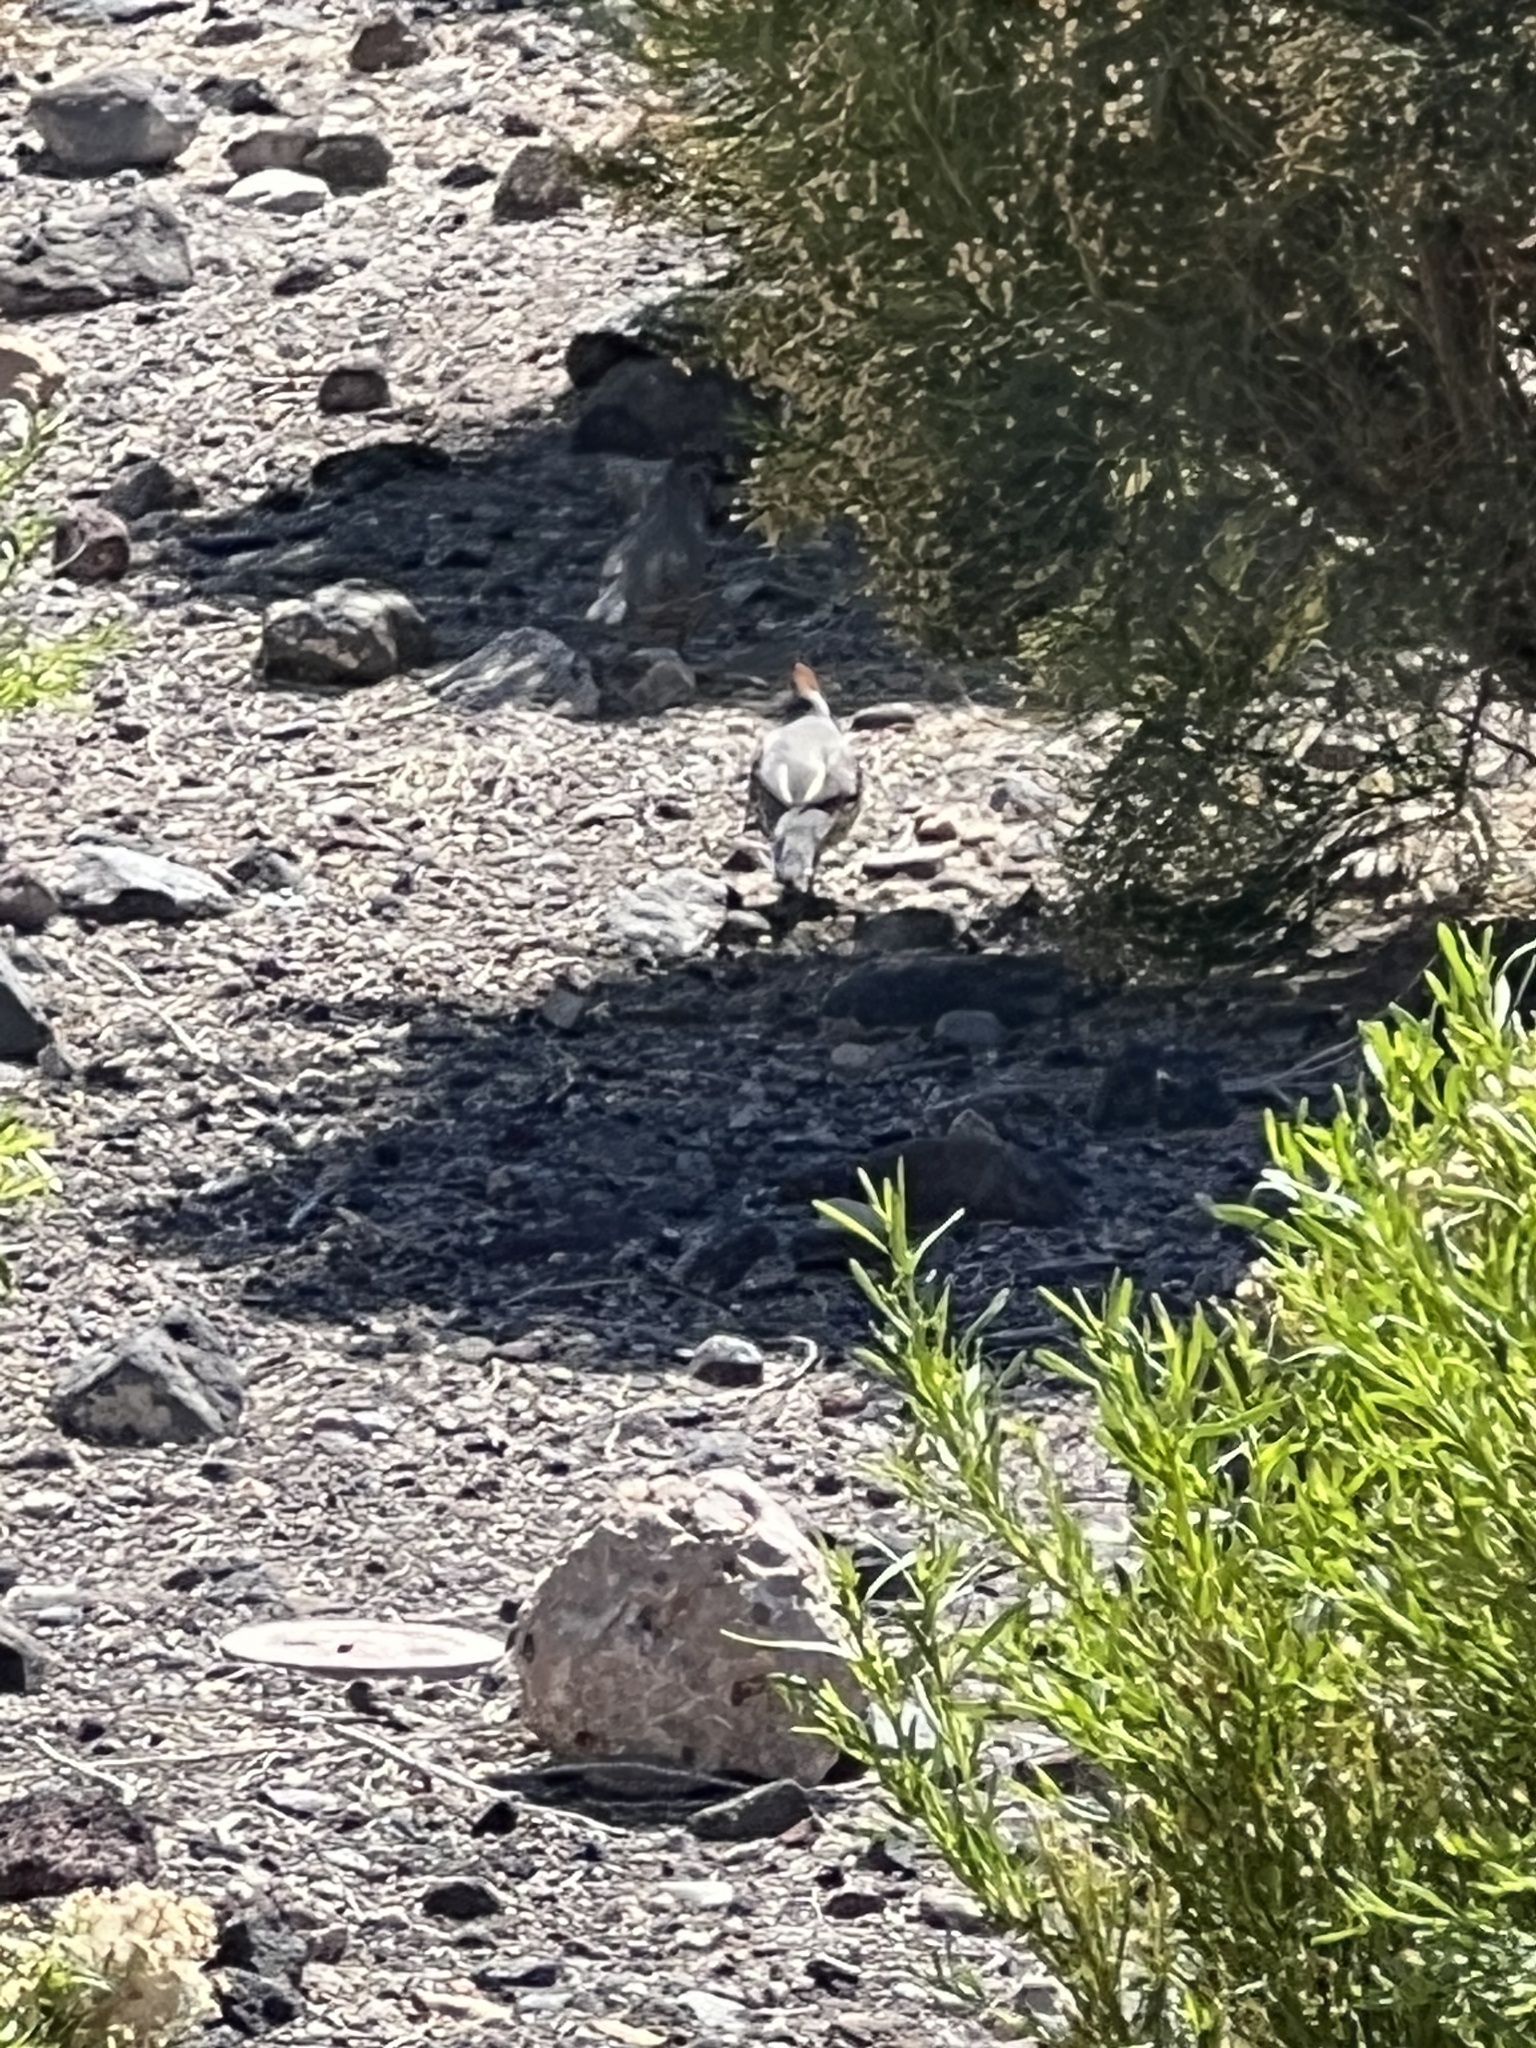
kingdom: Animalia
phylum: Chordata
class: Aves
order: Galliformes
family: Odontophoridae
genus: Callipepla
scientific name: Callipepla gambelii
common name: Gambel's quail
